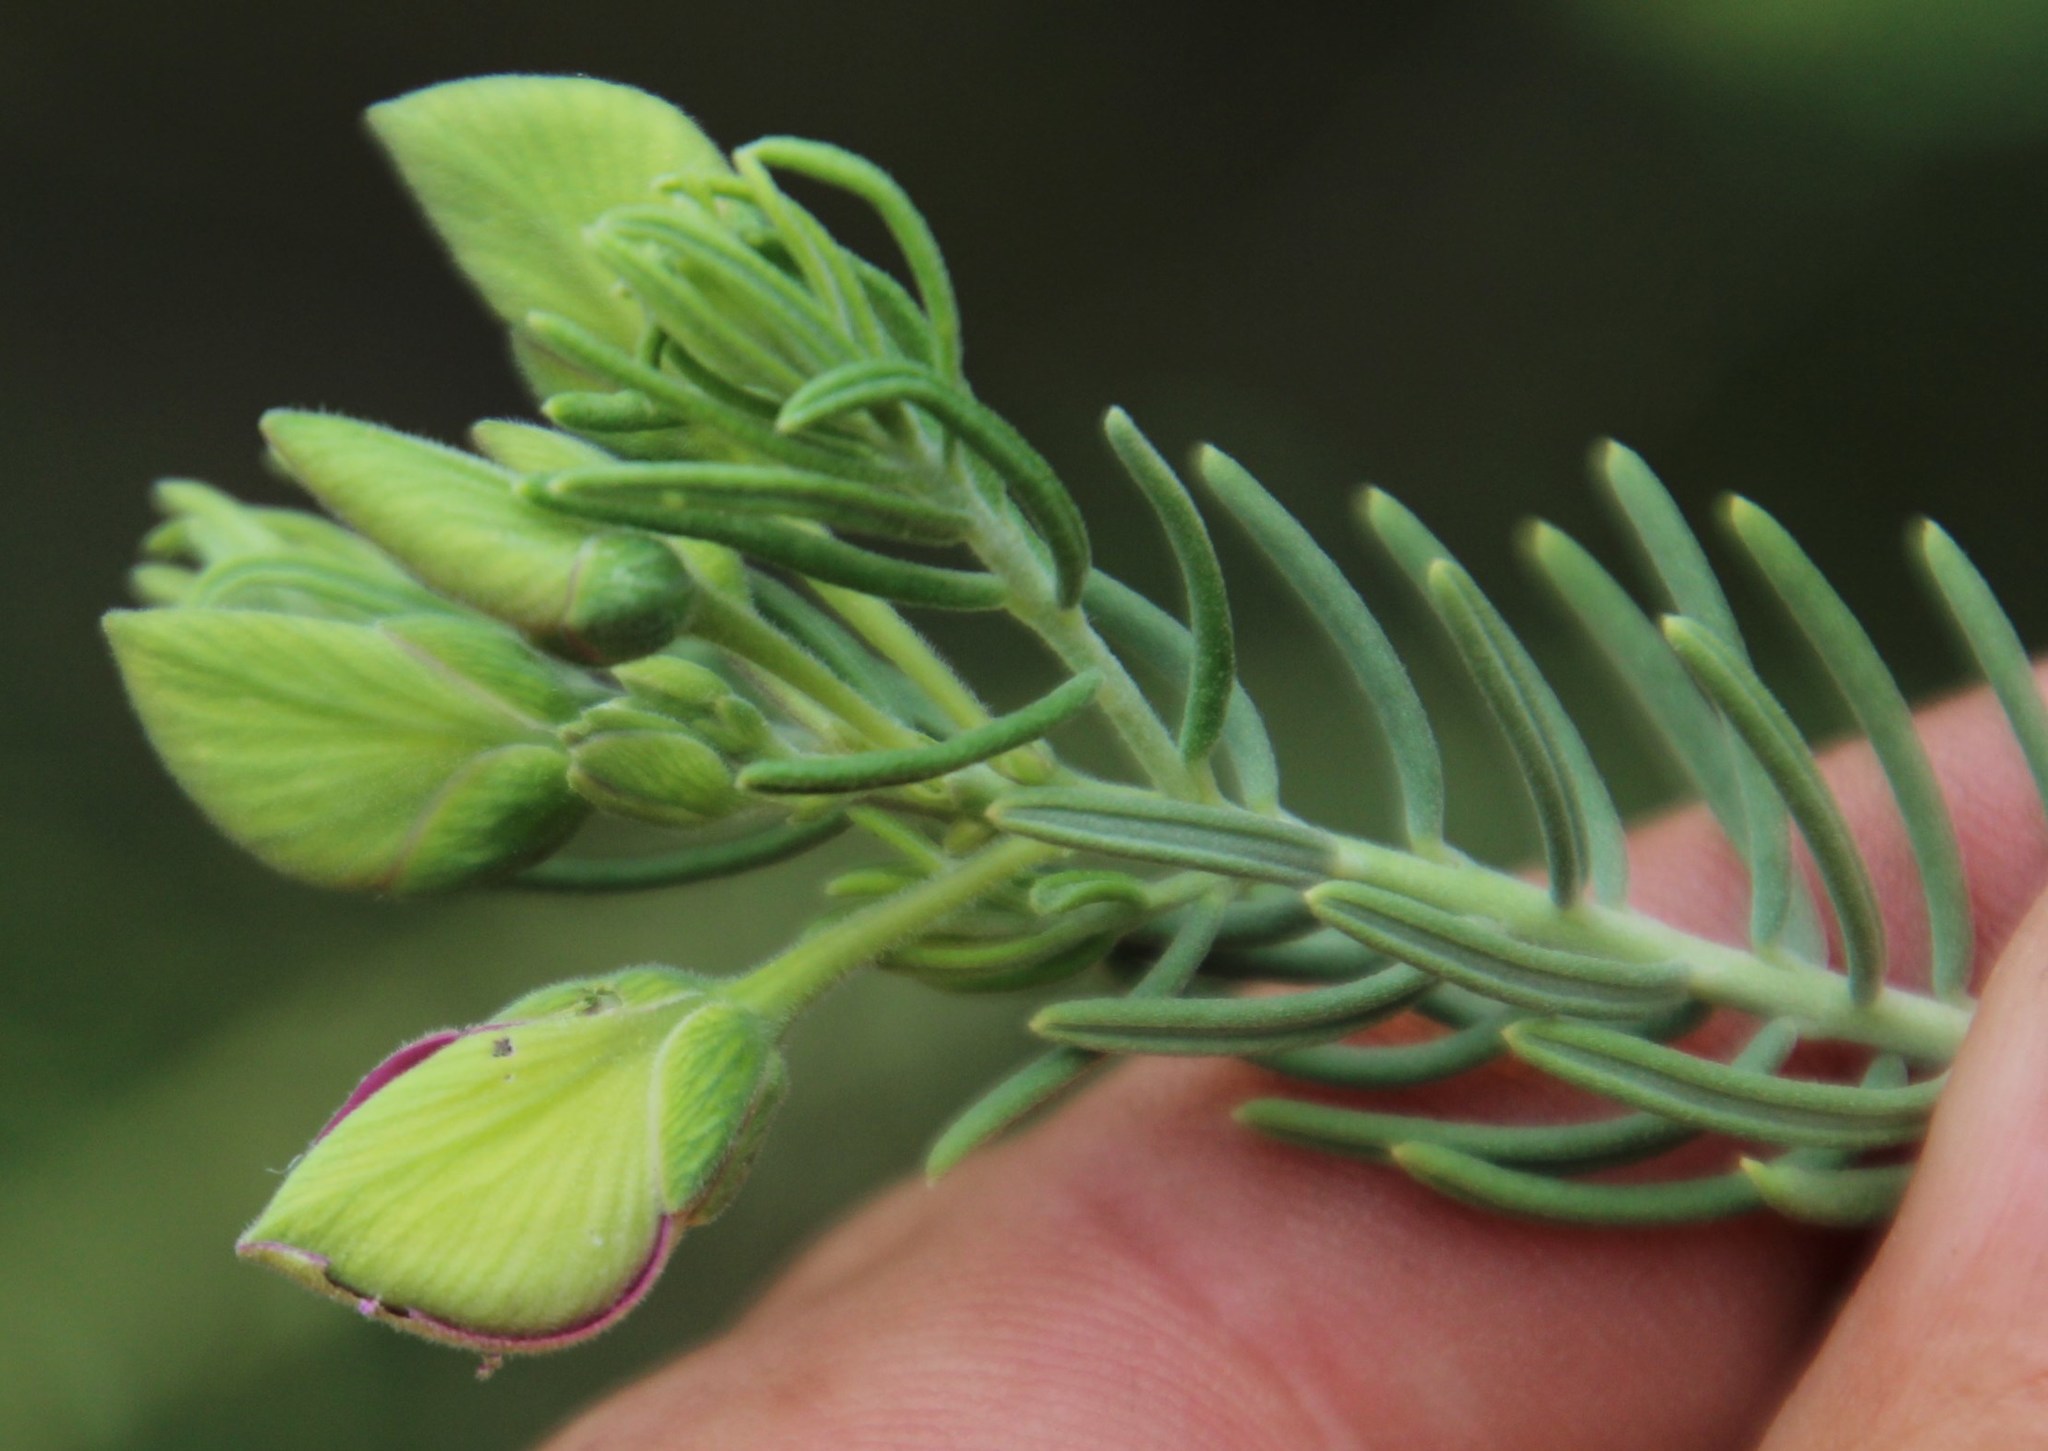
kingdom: Plantae
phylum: Tracheophyta
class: Magnoliopsida
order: Fabales
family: Polygalaceae
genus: Polygala
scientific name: Polygala lasiosepala
